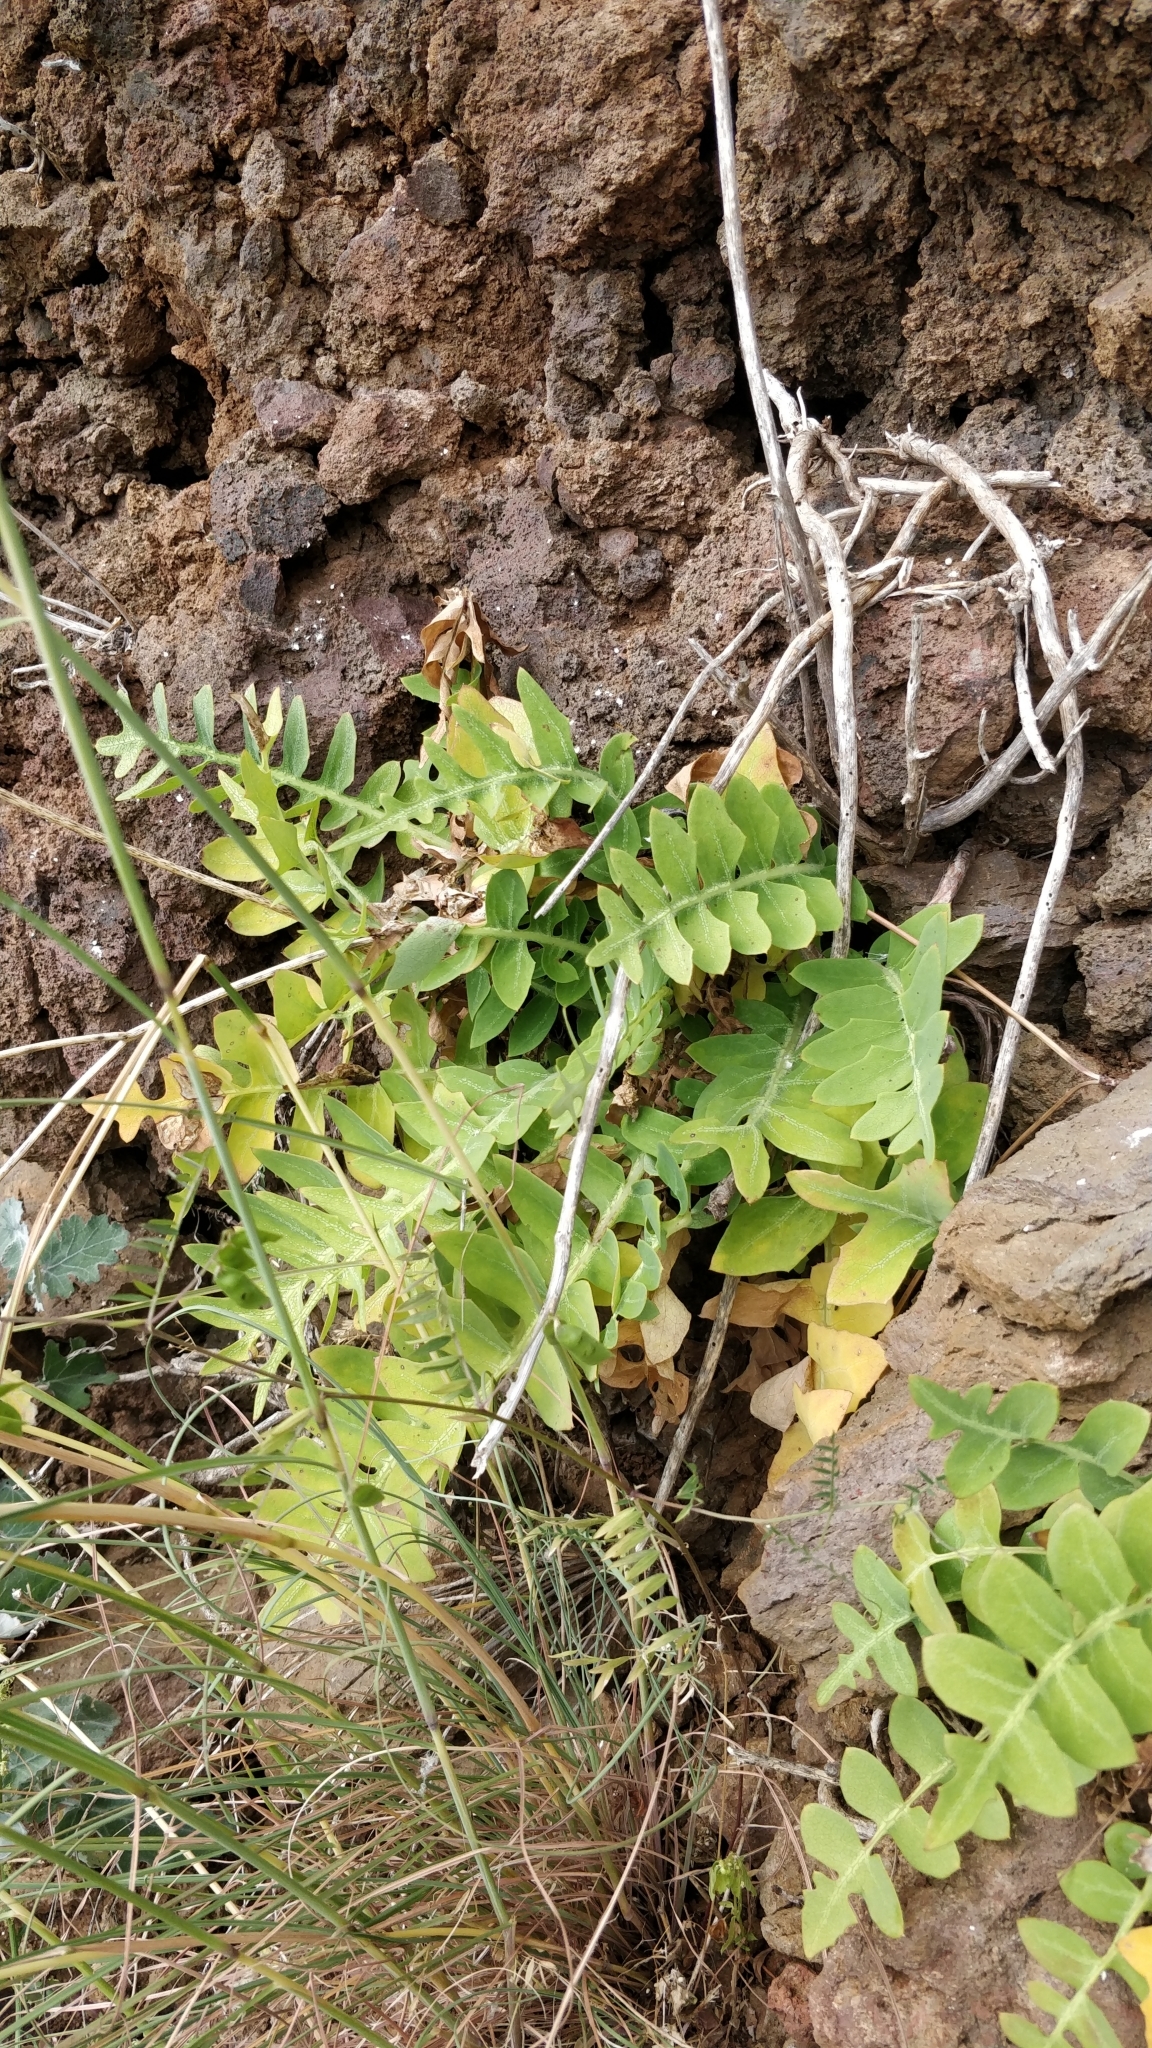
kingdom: Plantae
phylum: Tracheophyta
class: Magnoliopsida
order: Asterales
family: Asteraceae
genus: Sonchus
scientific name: Sonchus latifolius
